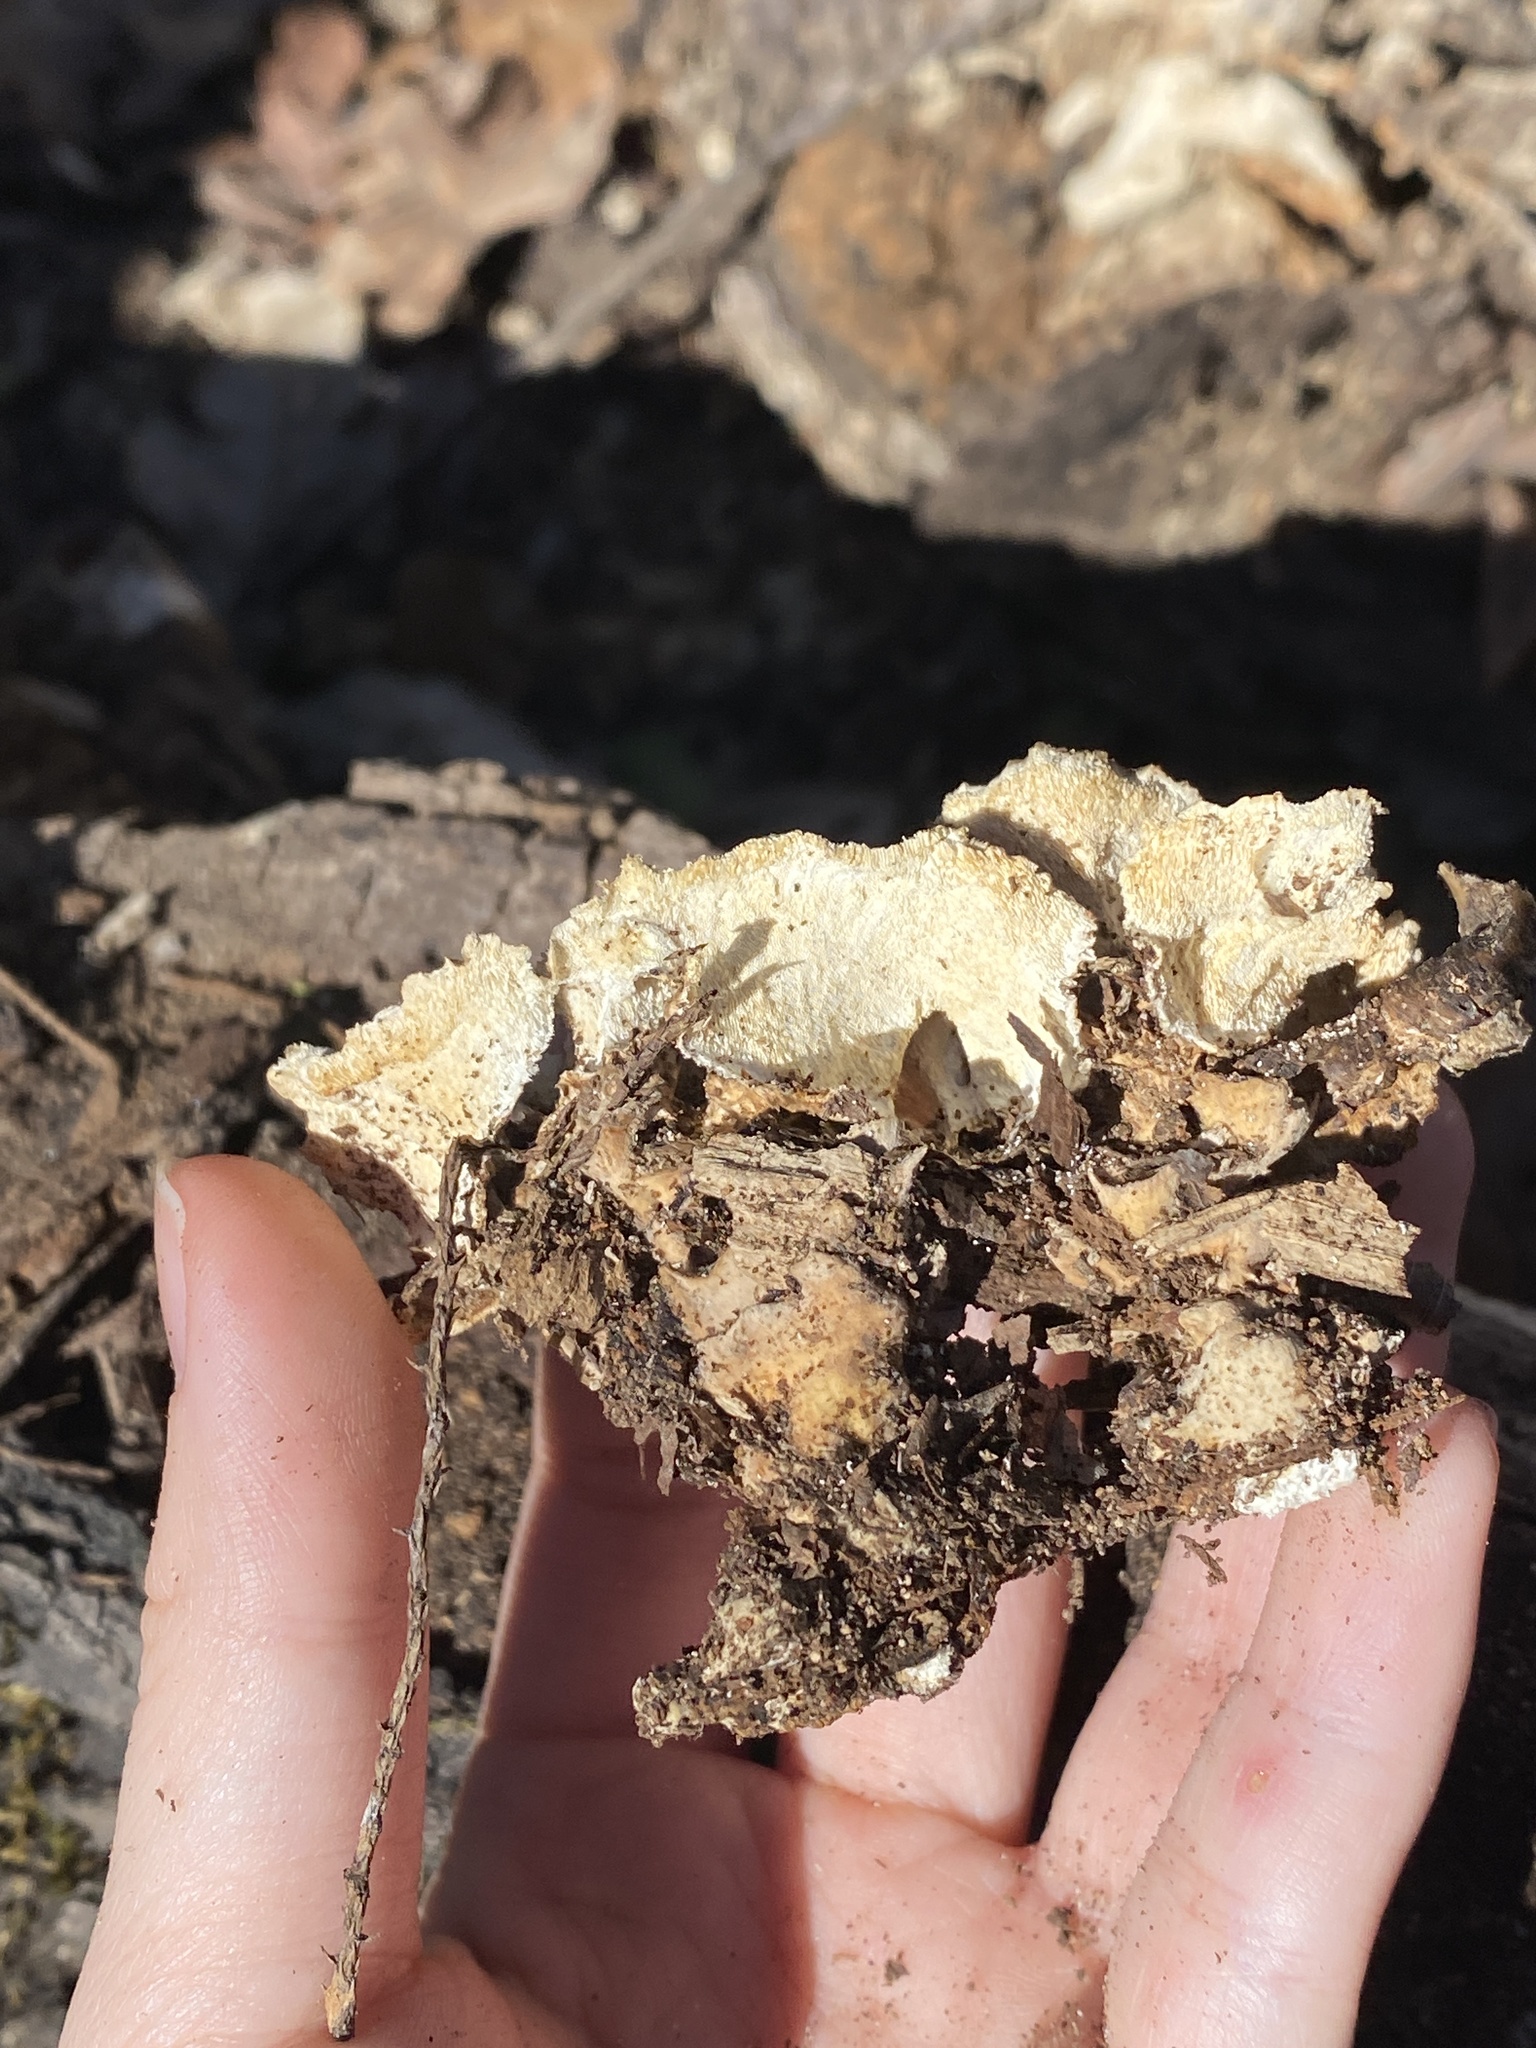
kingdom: Fungi
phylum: Basidiomycota
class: Agaricomycetes
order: Polyporales
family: Polyporaceae
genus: Trametes
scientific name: Trametes versicolor
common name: Turkeytail
